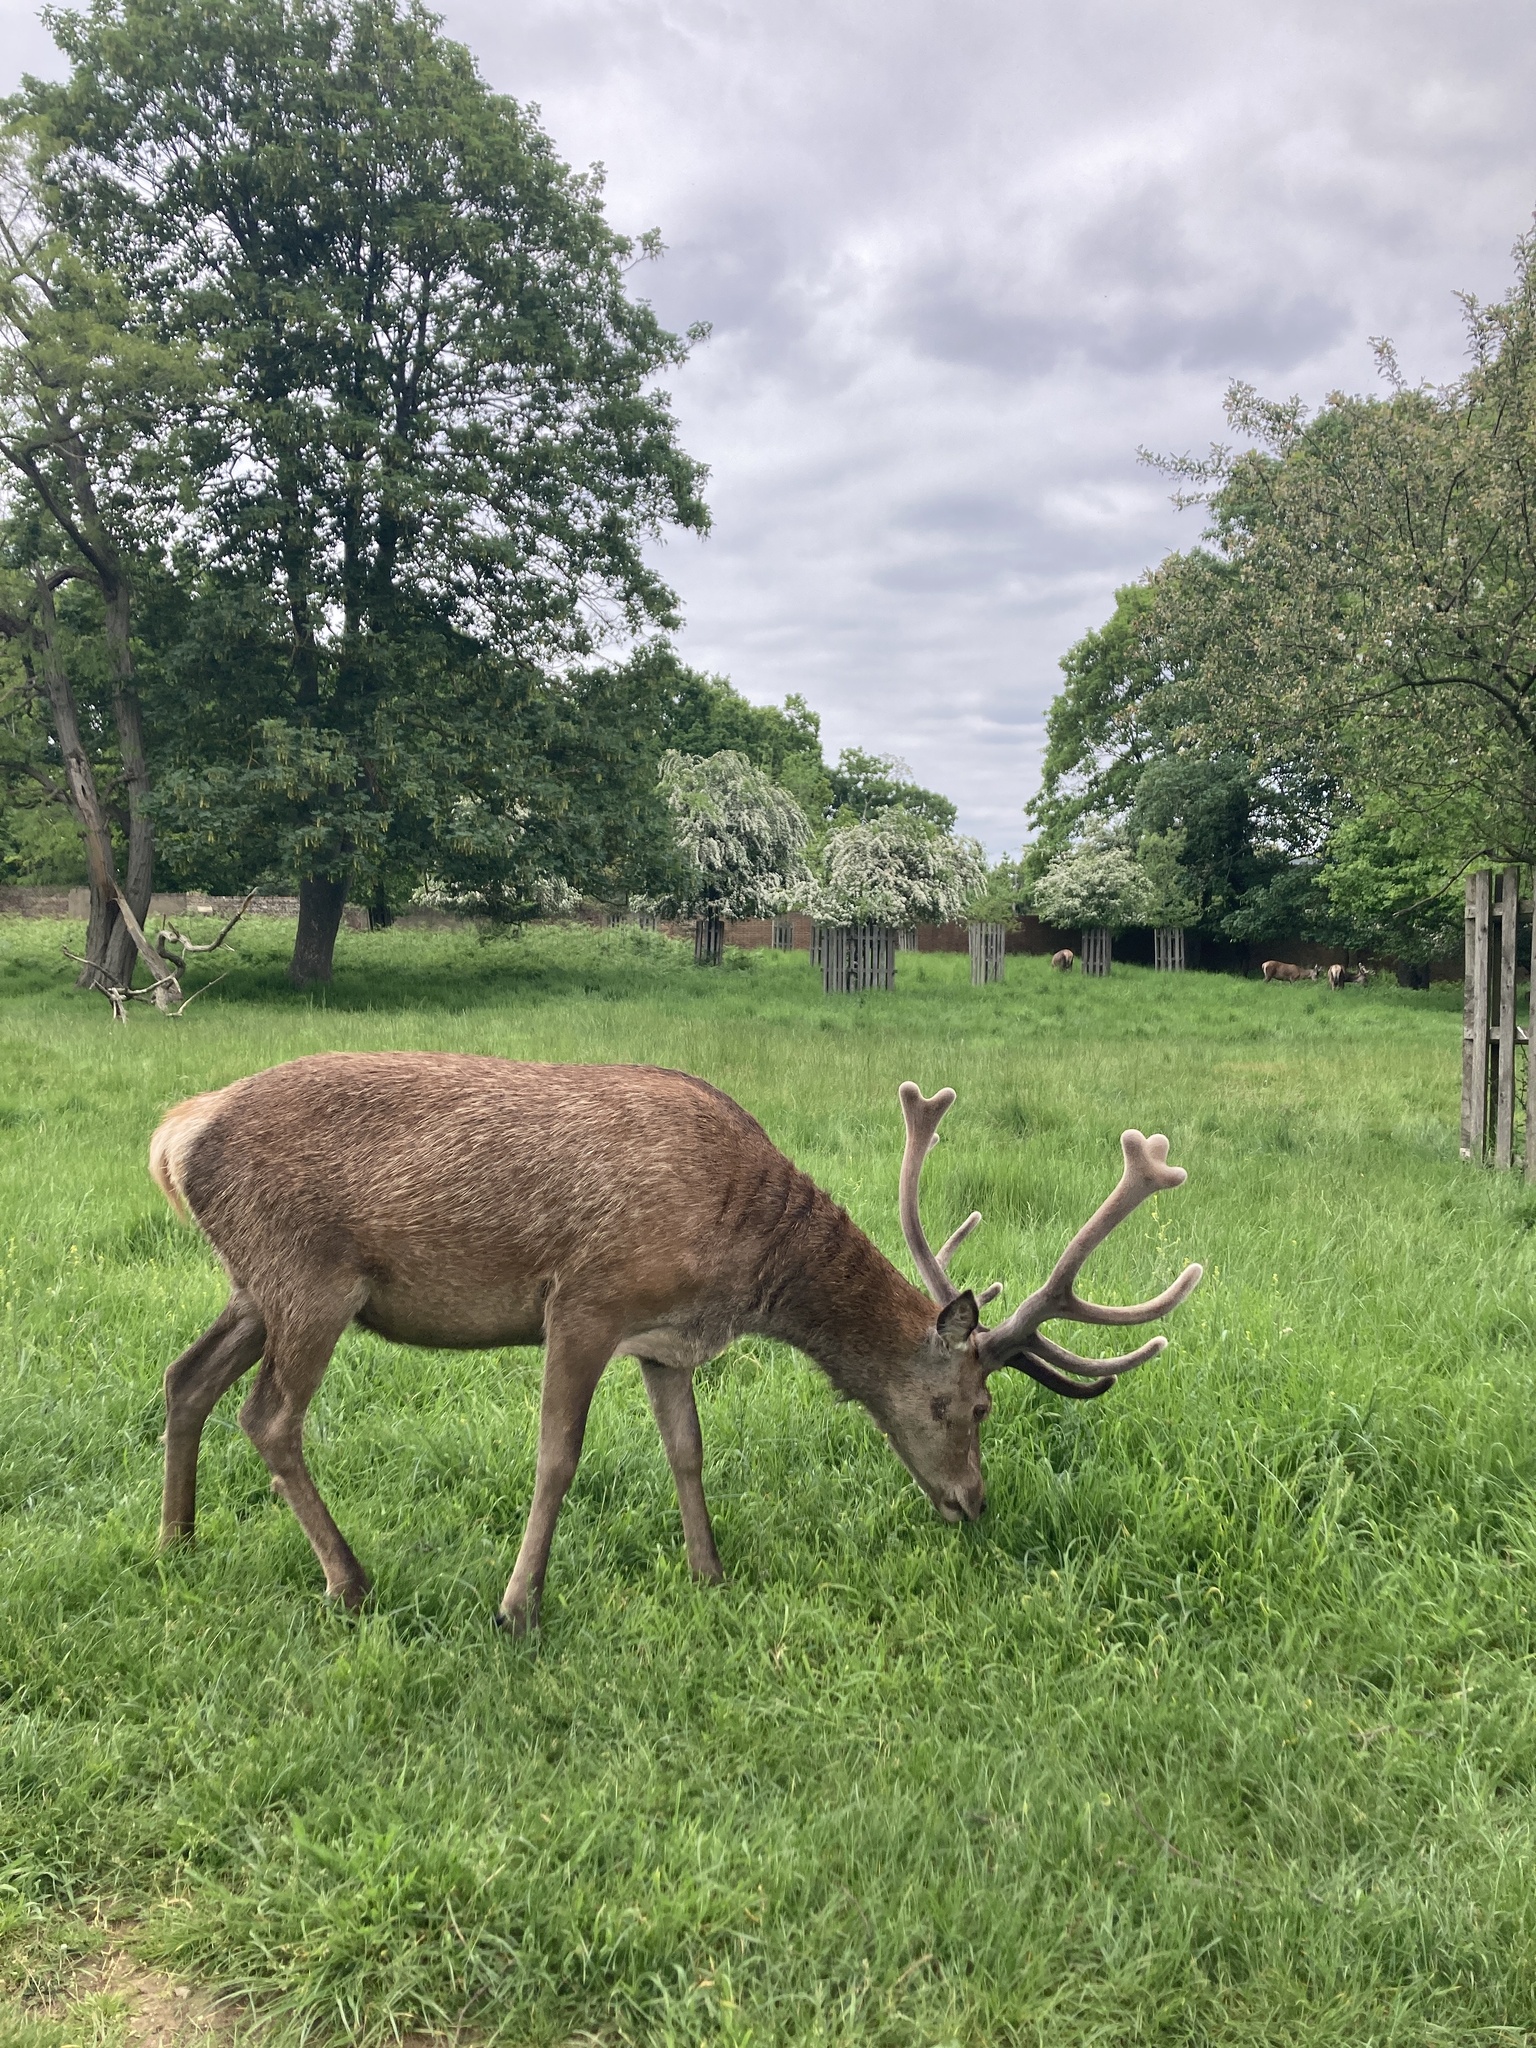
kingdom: Animalia
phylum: Chordata
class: Mammalia
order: Artiodactyla
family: Cervidae
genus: Cervus
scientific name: Cervus elaphus
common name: Red deer
